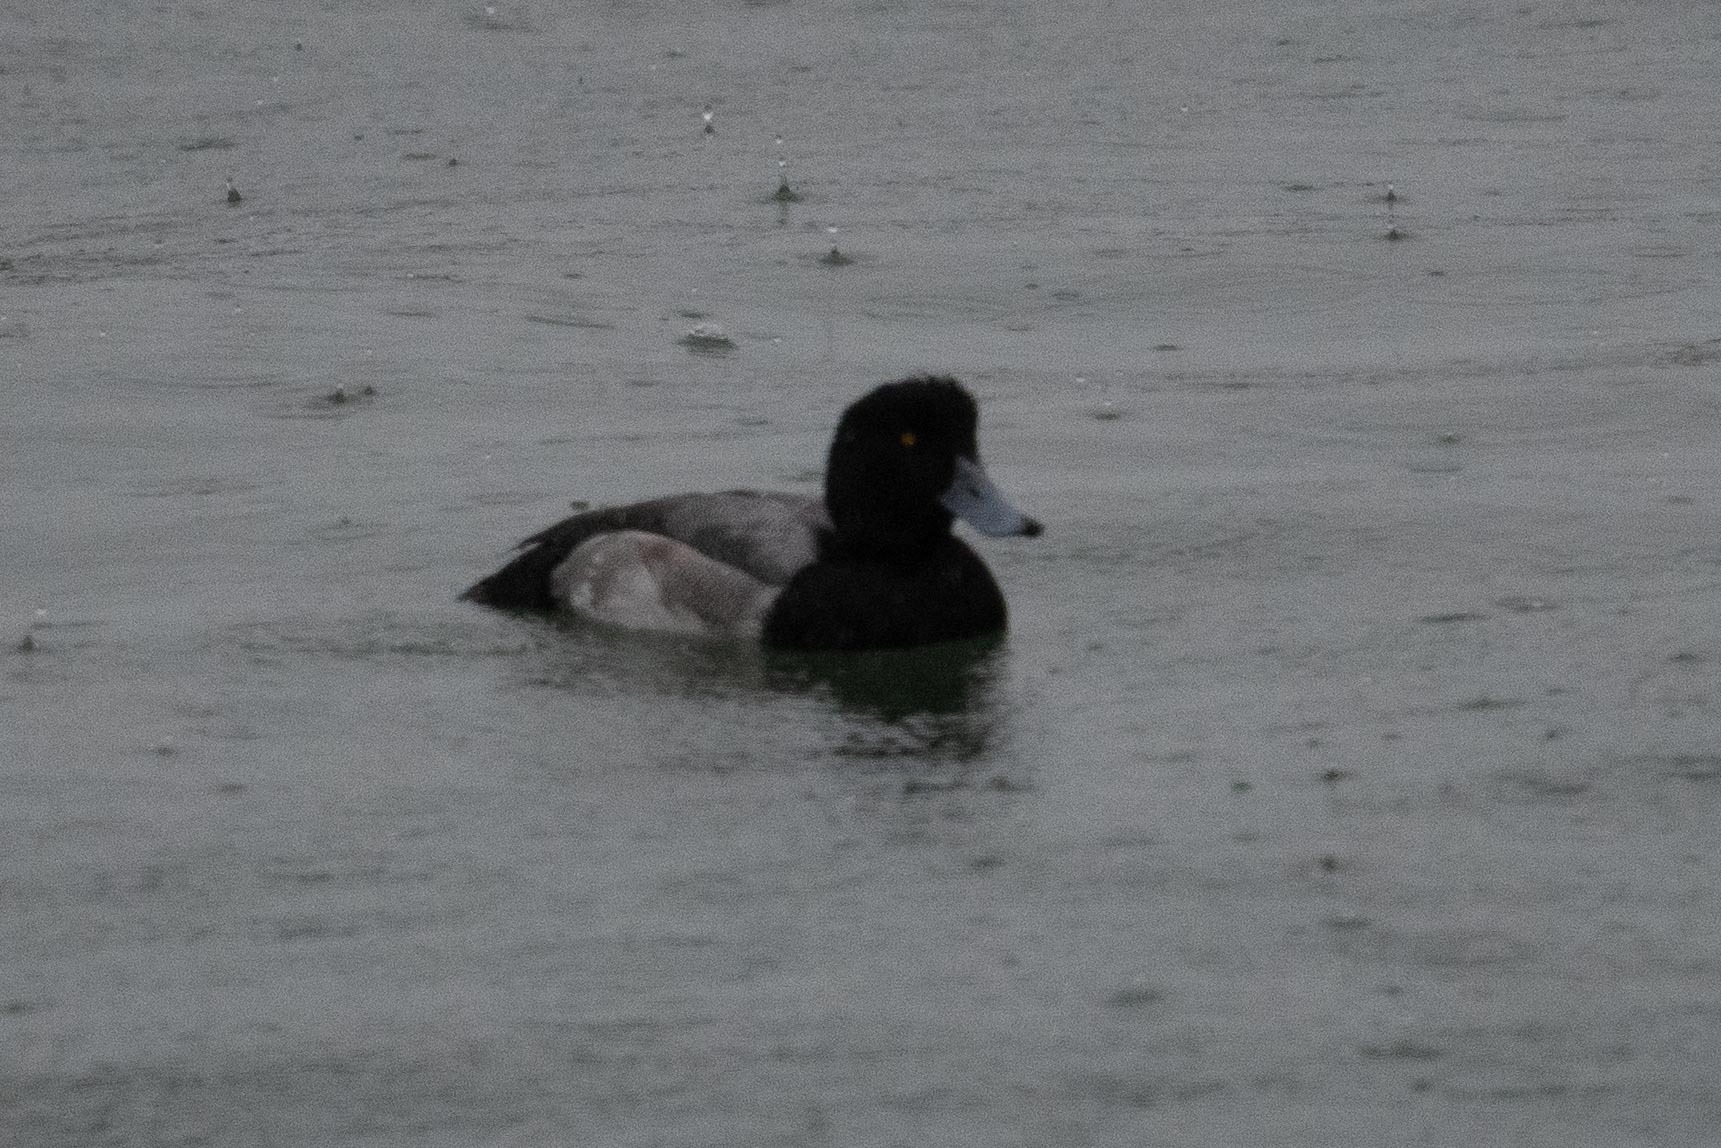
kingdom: Animalia
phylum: Chordata
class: Aves
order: Anseriformes
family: Anatidae
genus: Aythya
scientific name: Aythya marila
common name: Greater scaup
